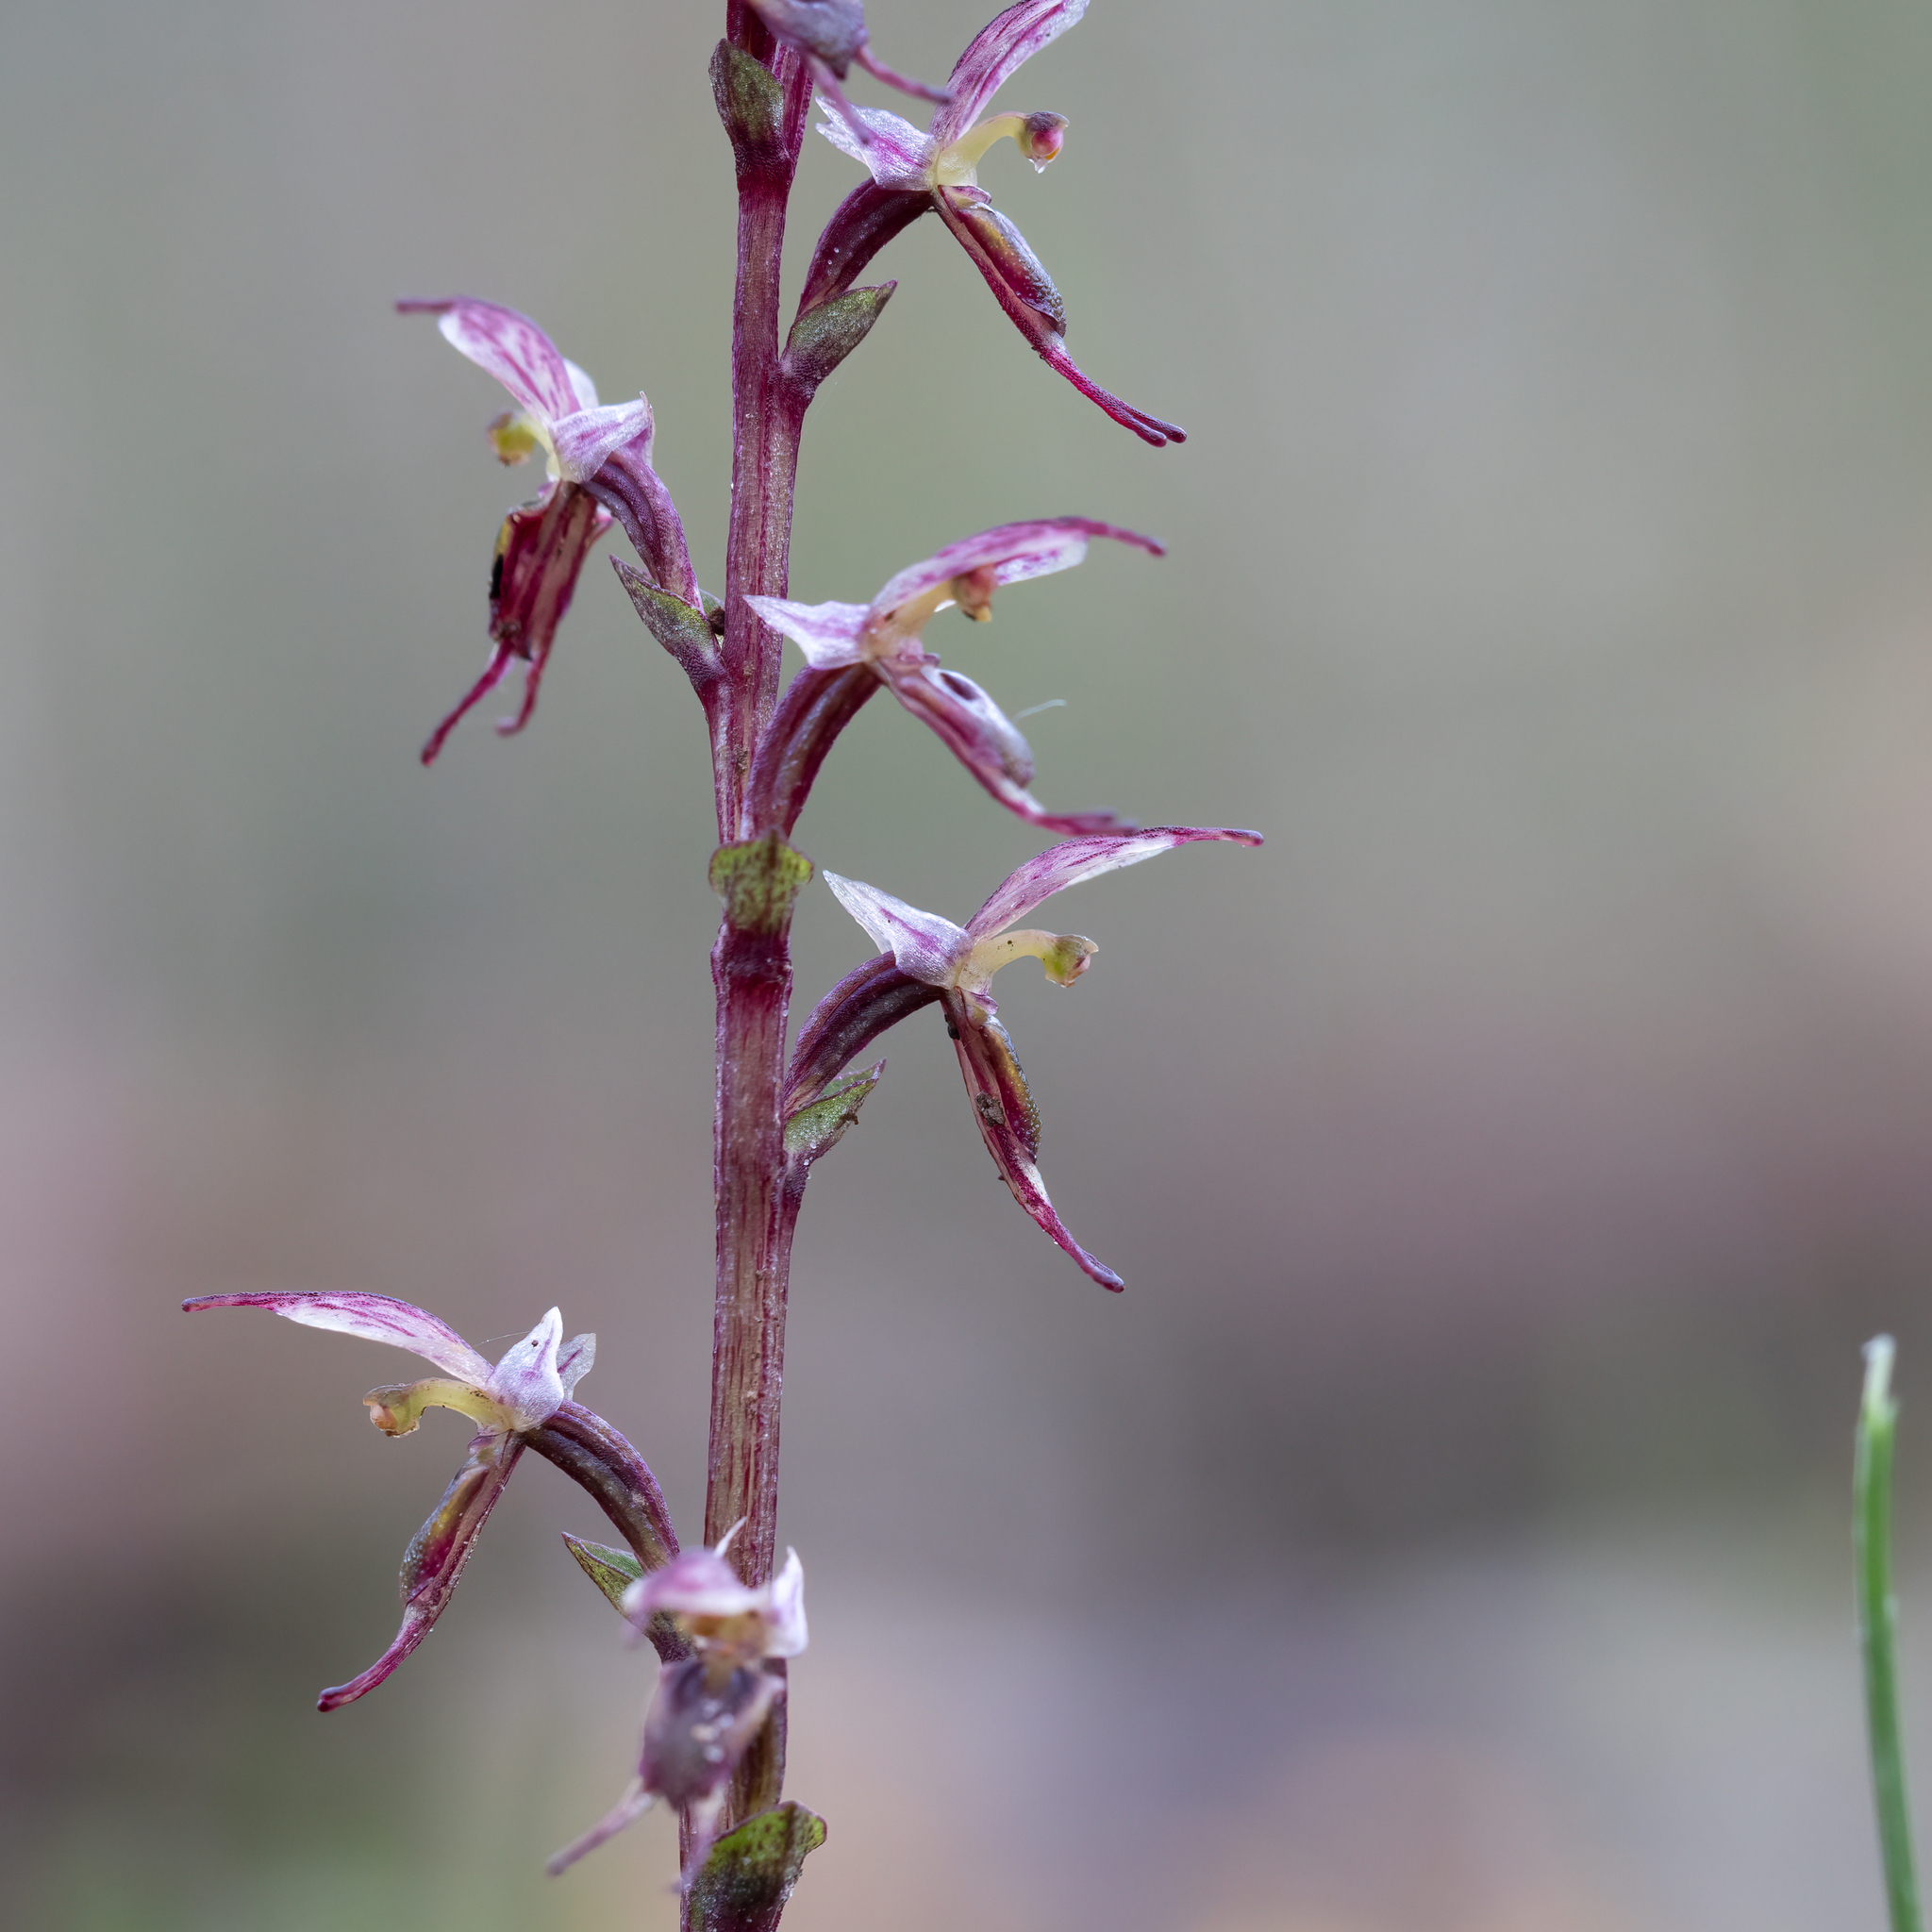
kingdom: Plantae
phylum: Tracheophyta
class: Liliopsida
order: Asparagales
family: Orchidaceae
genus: Acianthus
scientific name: Acianthus pusillus
